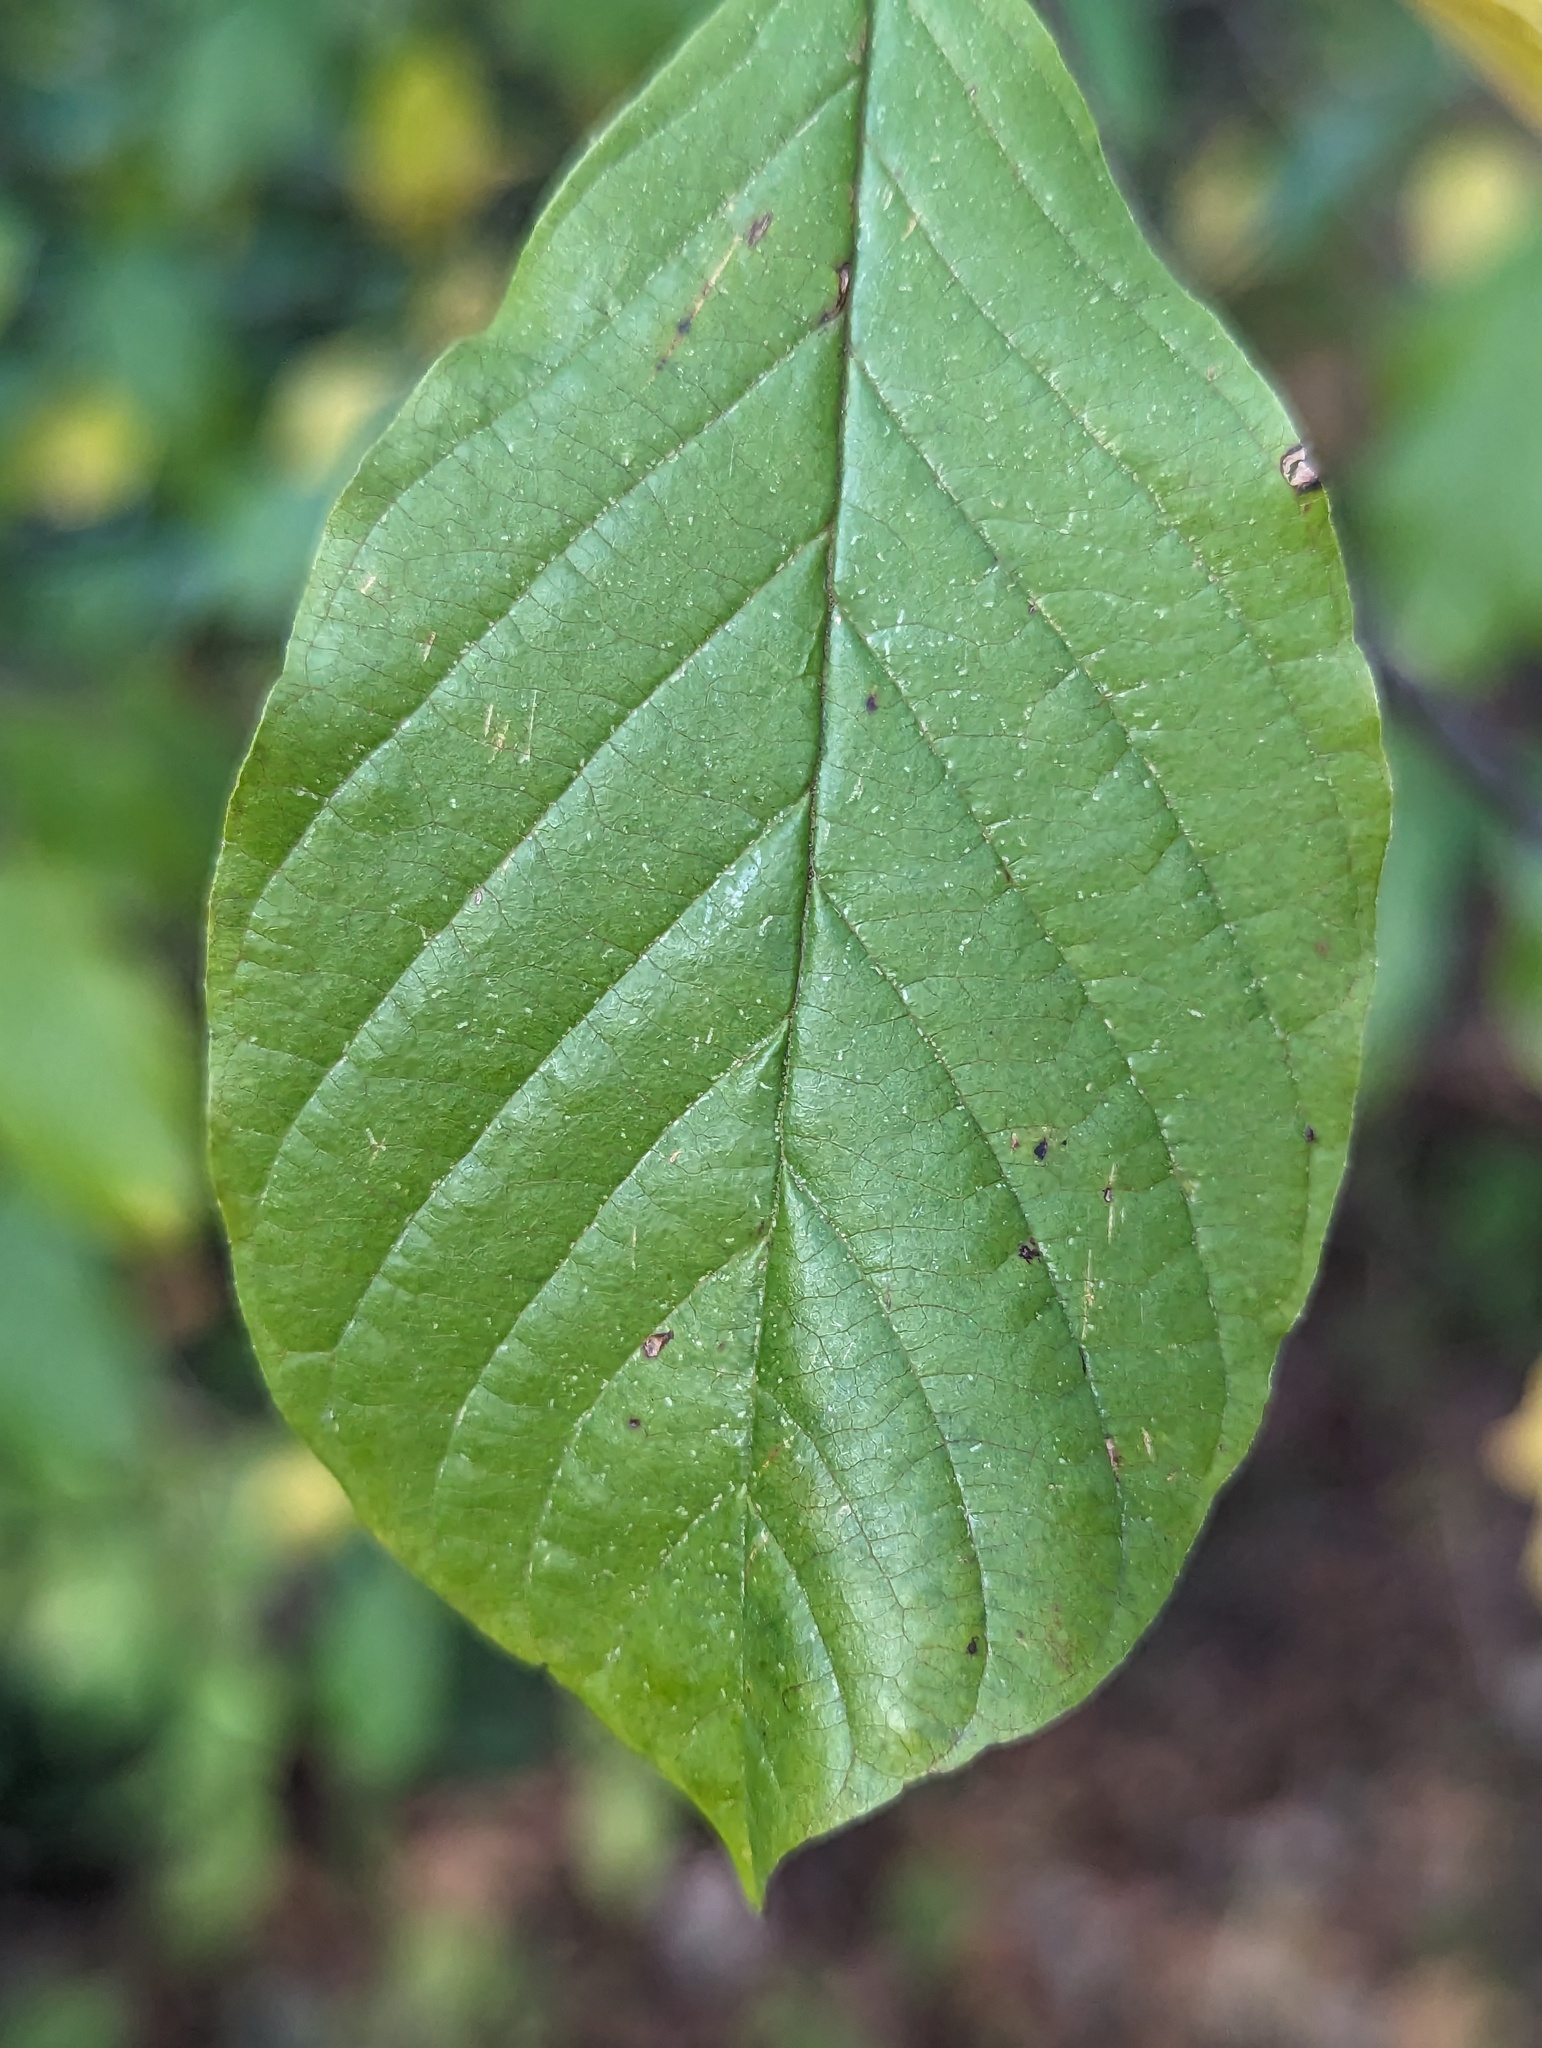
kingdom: Plantae
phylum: Tracheophyta
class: Magnoliopsida
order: Rosales
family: Rhamnaceae
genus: Frangula
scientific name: Frangula alnus
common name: Alder buckthorn
